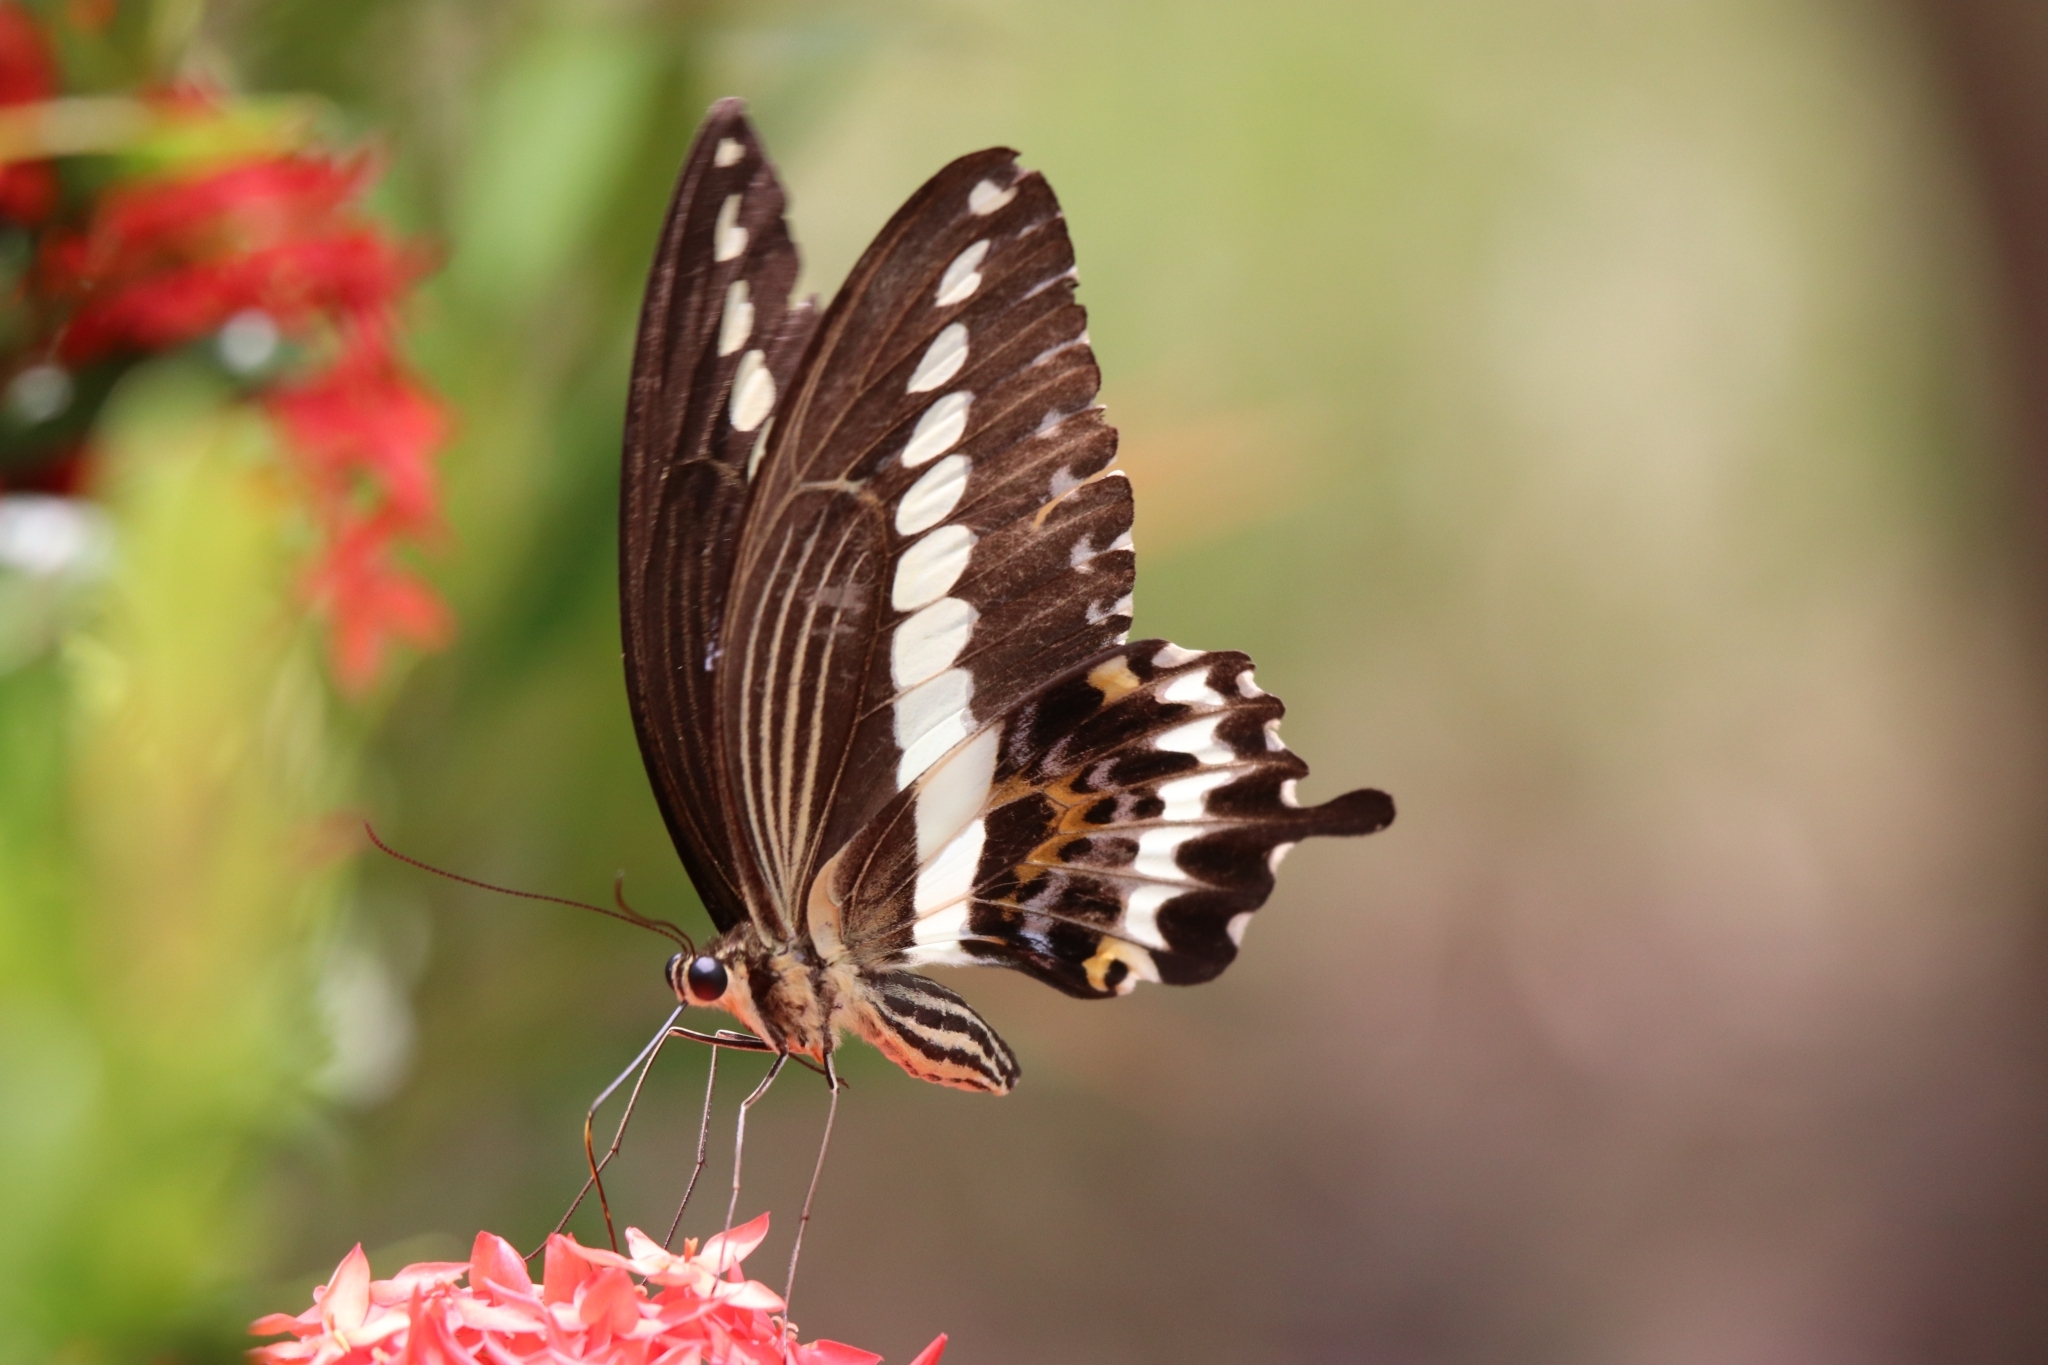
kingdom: Animalia
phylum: Arthropoda
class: Insecta
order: Lepidoptera
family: Papilionidae
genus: Papilio
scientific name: Papilio gigon
